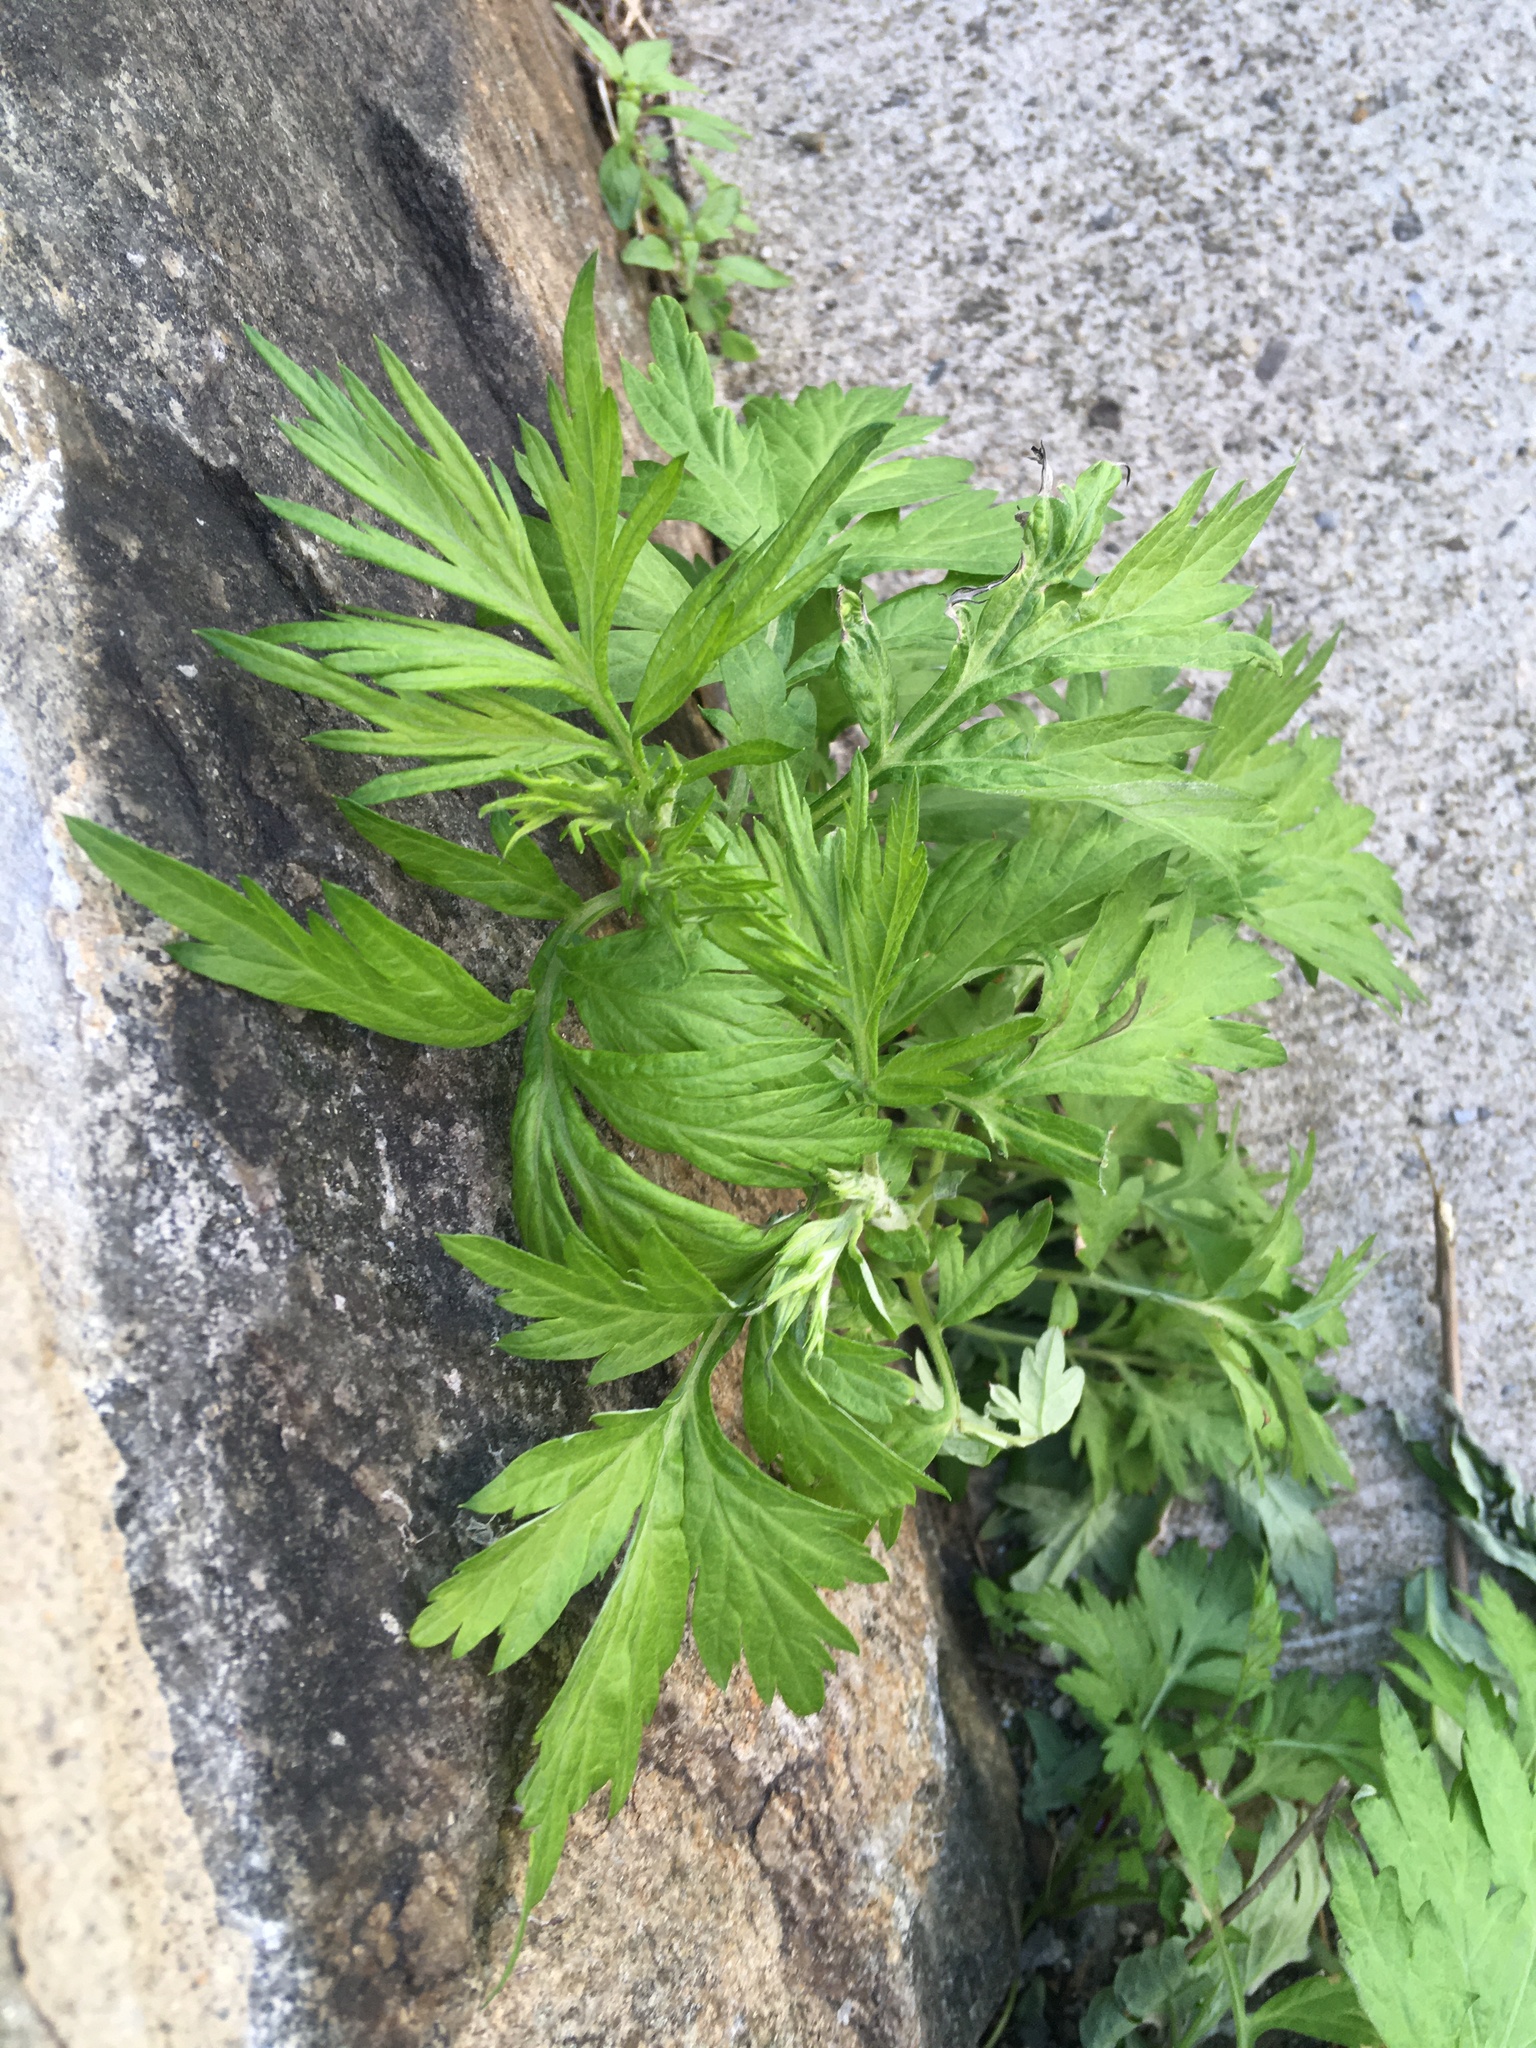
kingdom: Plantae
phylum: Tracheophyta
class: Magnoliopsida
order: Asterales
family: Asteraceae
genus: Artemisia
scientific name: Artemisia vulgaris
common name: Mugwort
